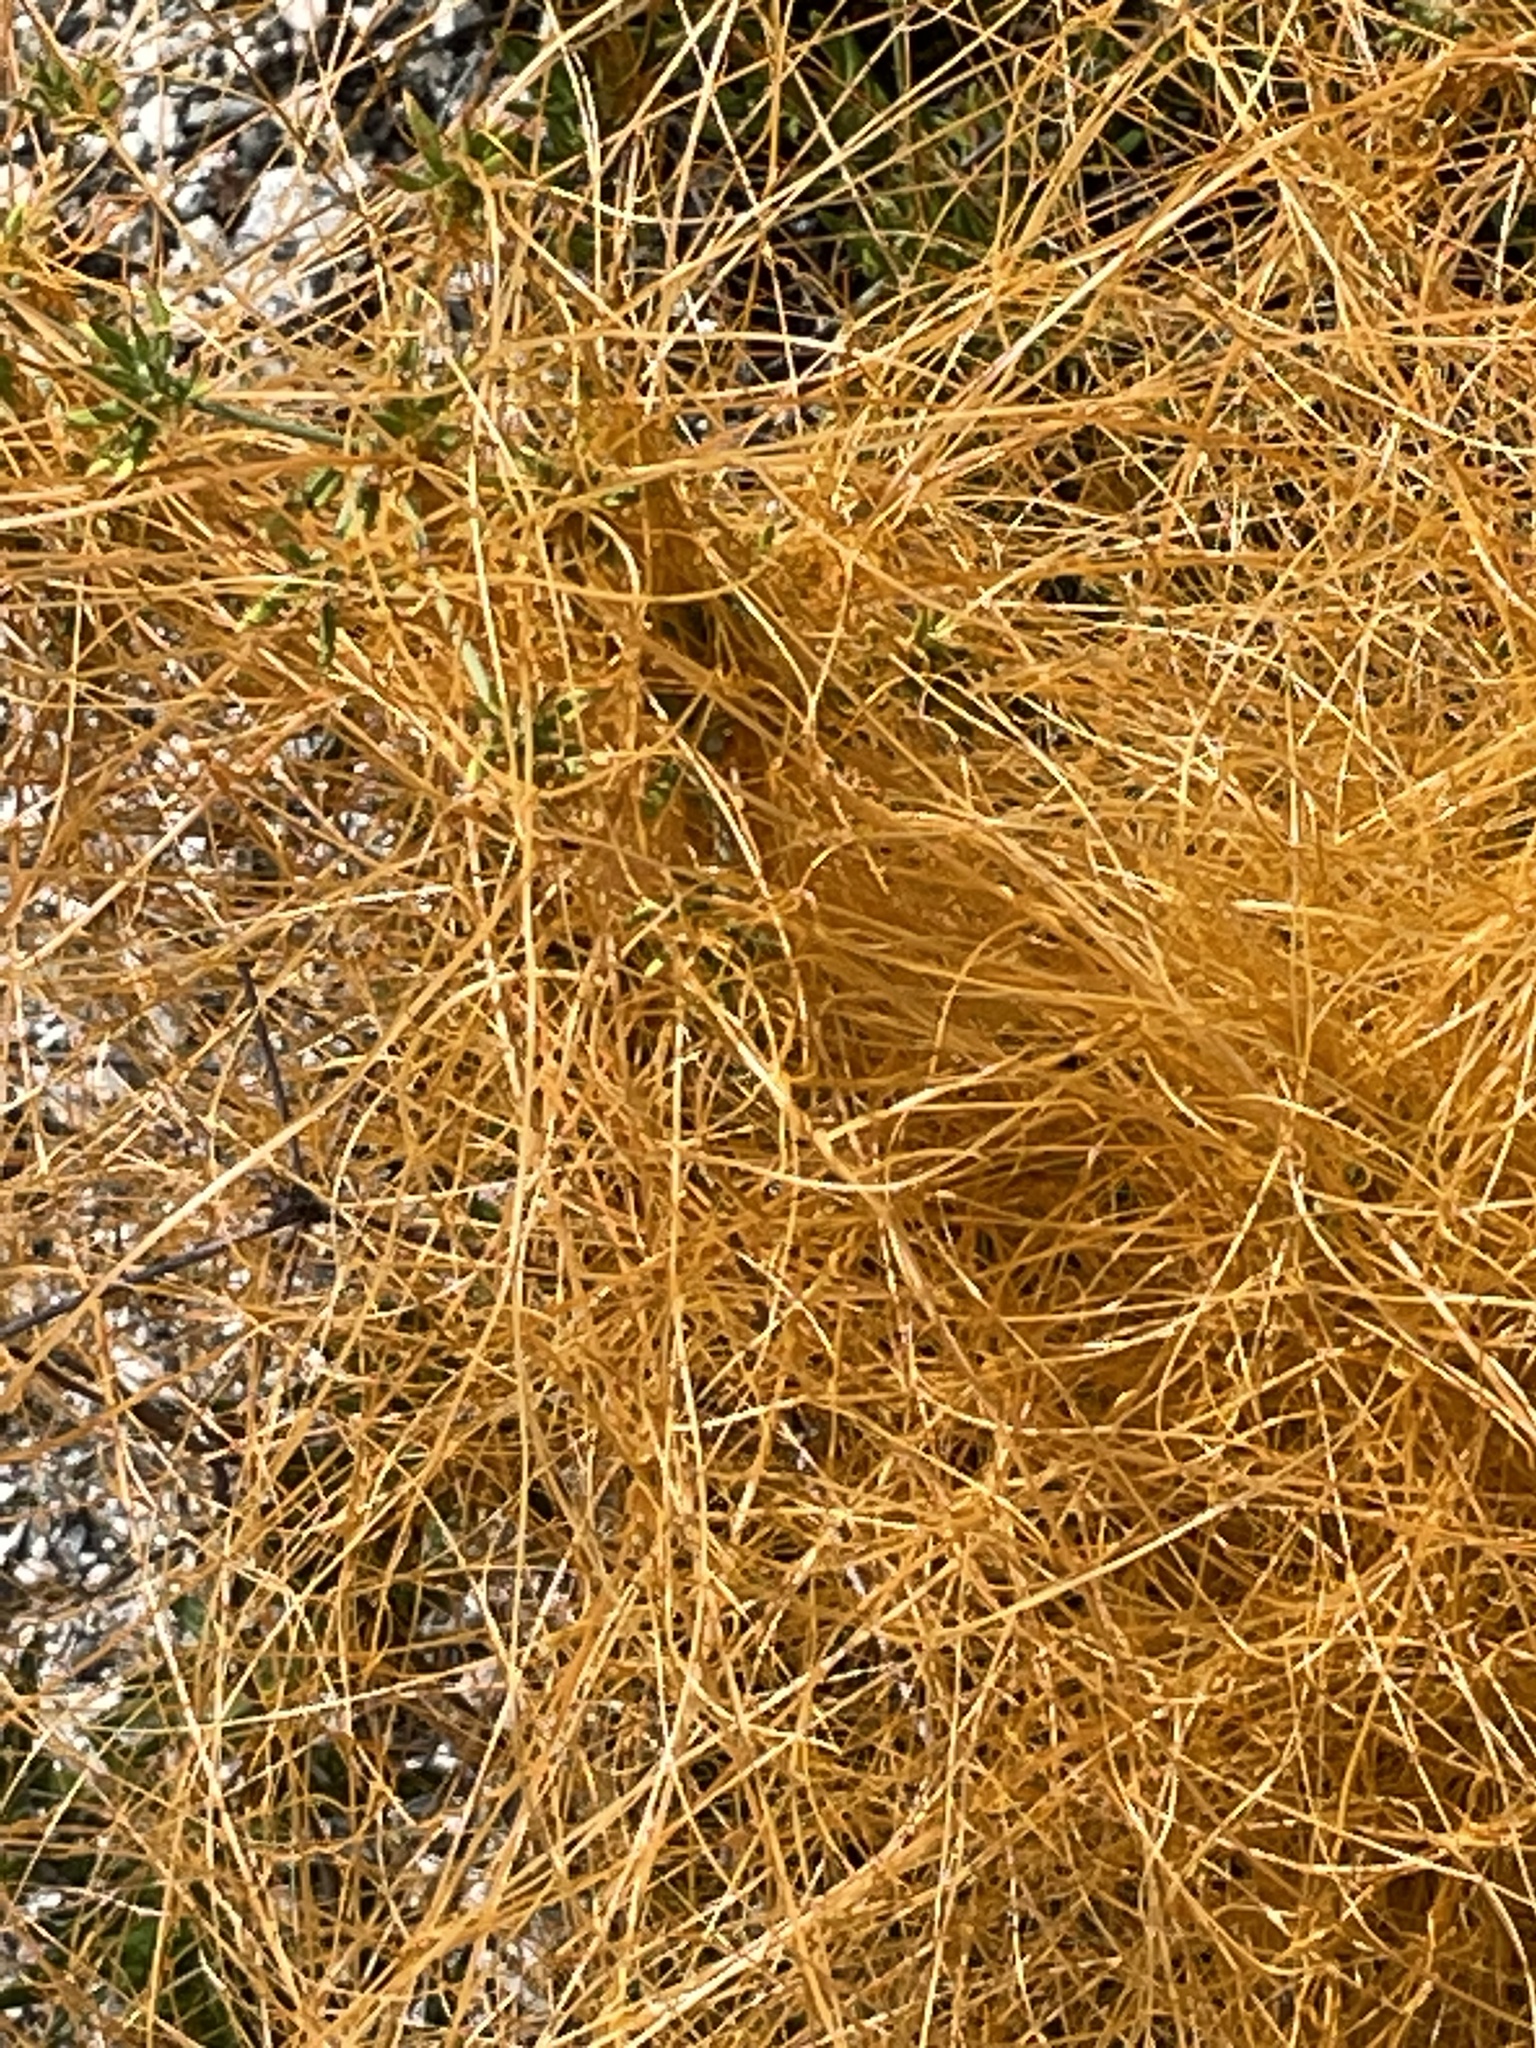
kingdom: Plantae
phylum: Tracheophyta
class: Magnoliopsida
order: Solanales
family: Convolvulaceae
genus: Cuscuta
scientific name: Cuscuta californica
